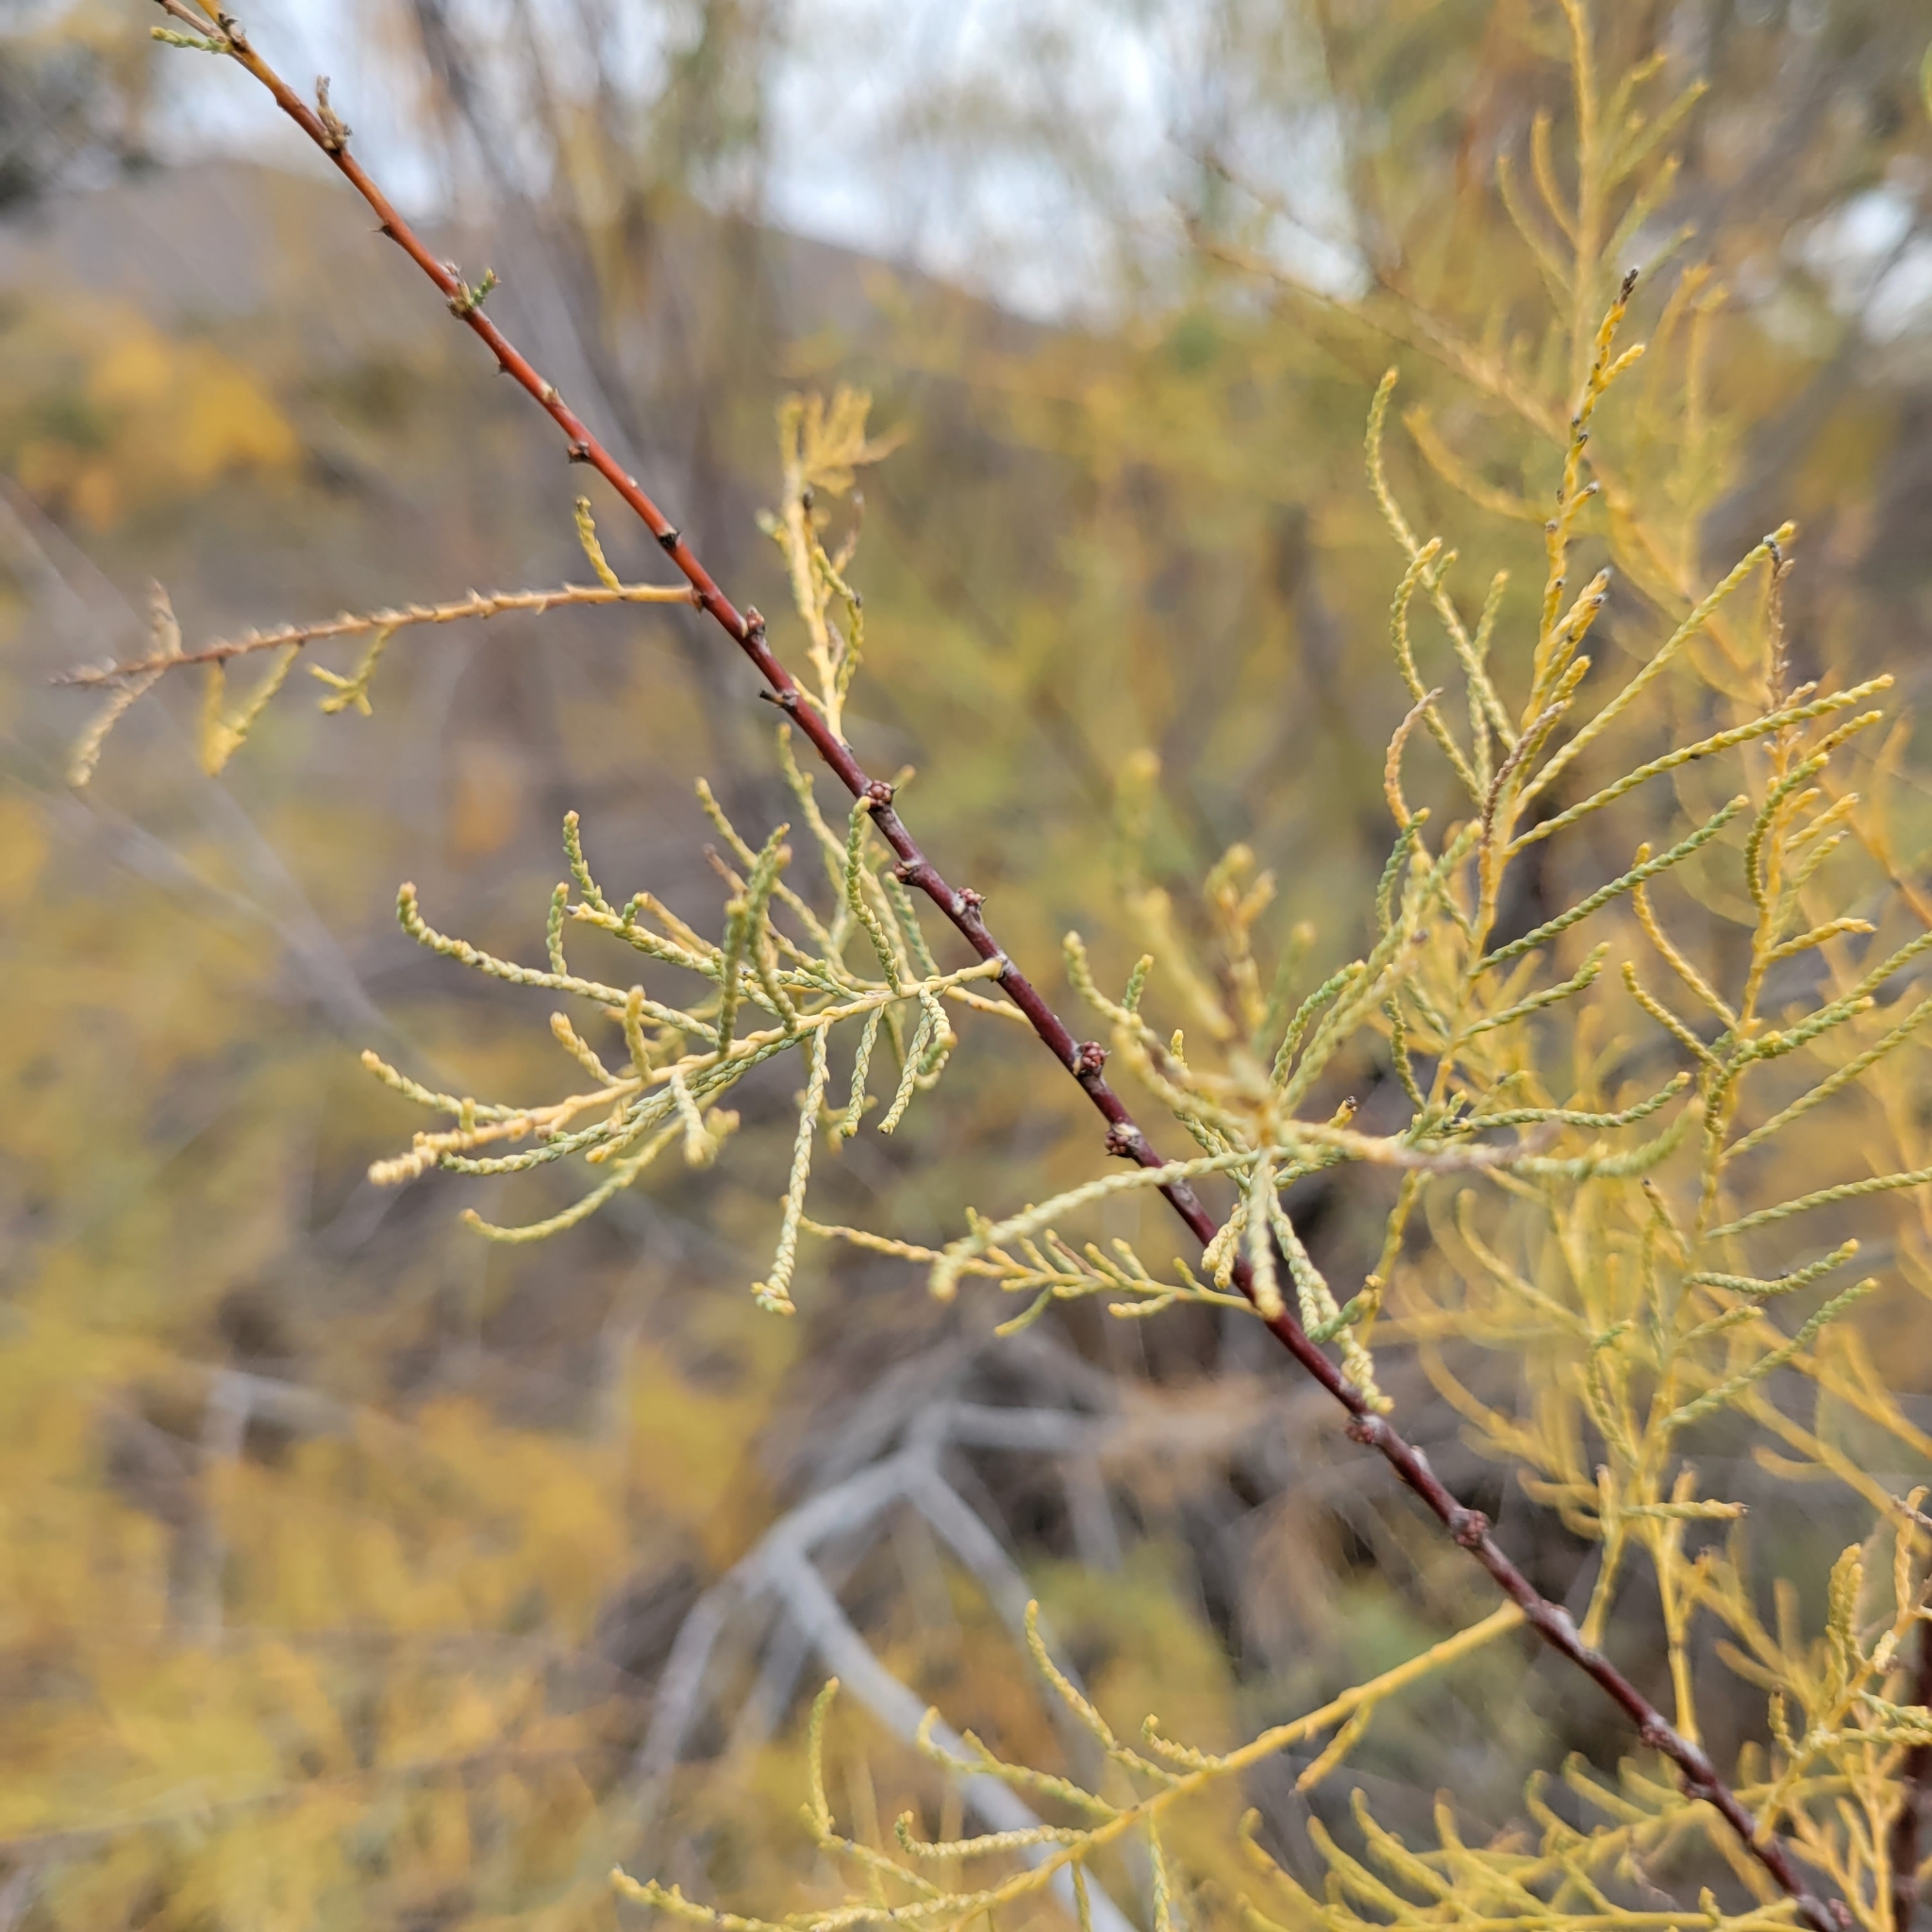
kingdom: Plantae
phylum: Tracheophyta
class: Magnoliopsida
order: Caryophyllales
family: Tamaricaceae
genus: Tamarix
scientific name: Tamarix ramosissima
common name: Pink tamarisk
